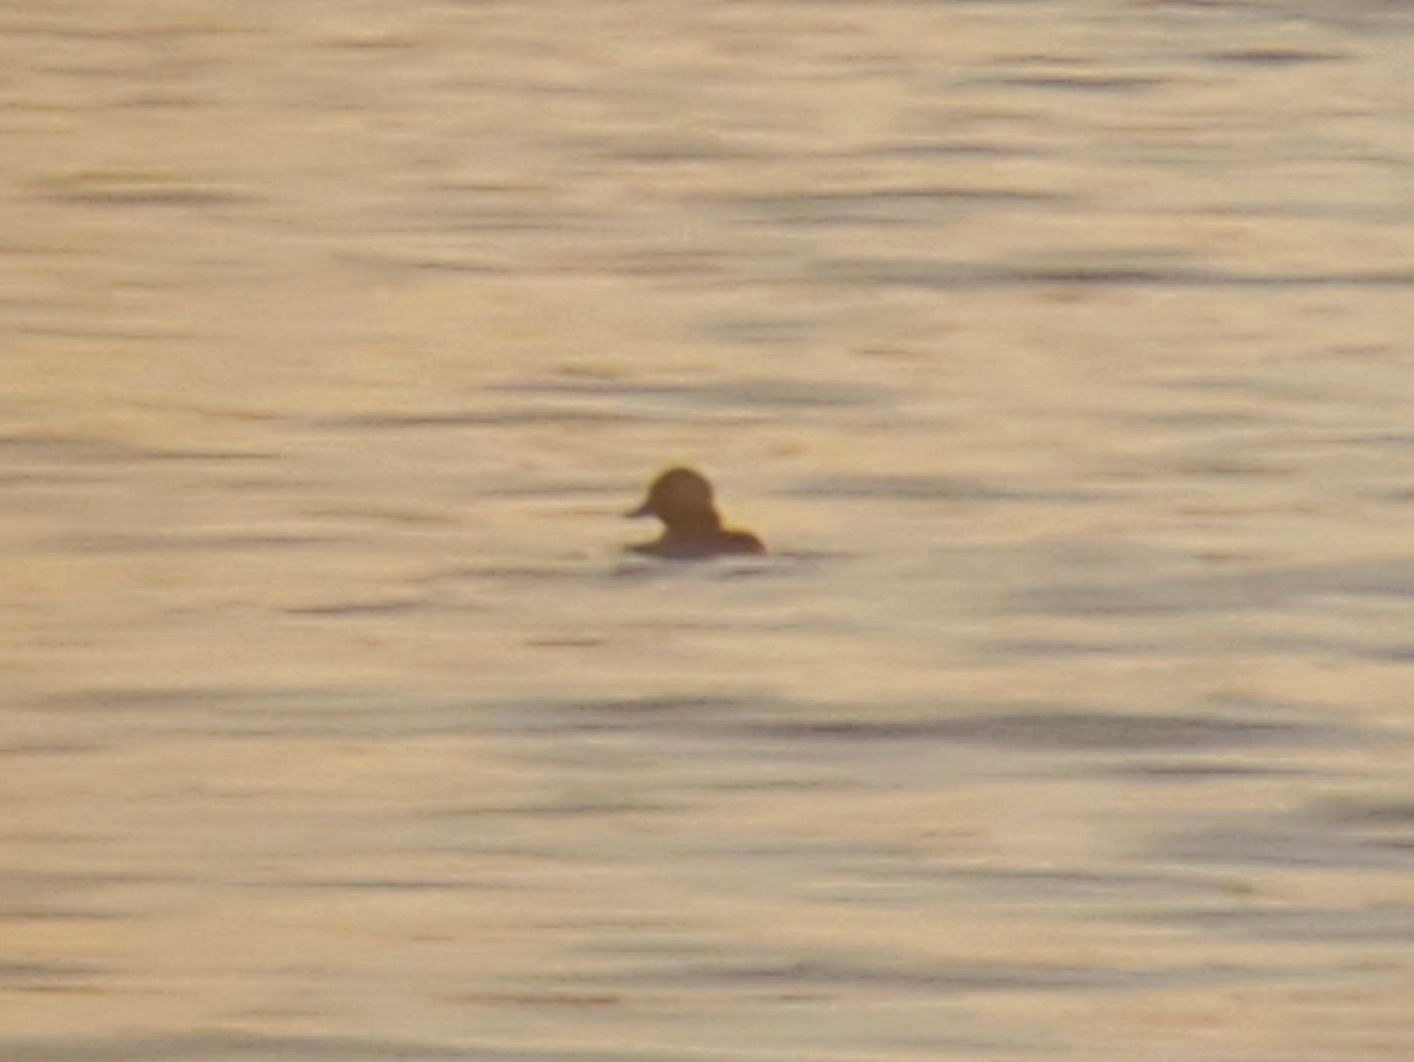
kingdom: Animalia
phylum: Chordata
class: Aves
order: Anseriformes
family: Anatidae
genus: Bucephala
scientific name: Bucephala albeola
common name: Bufflehead
